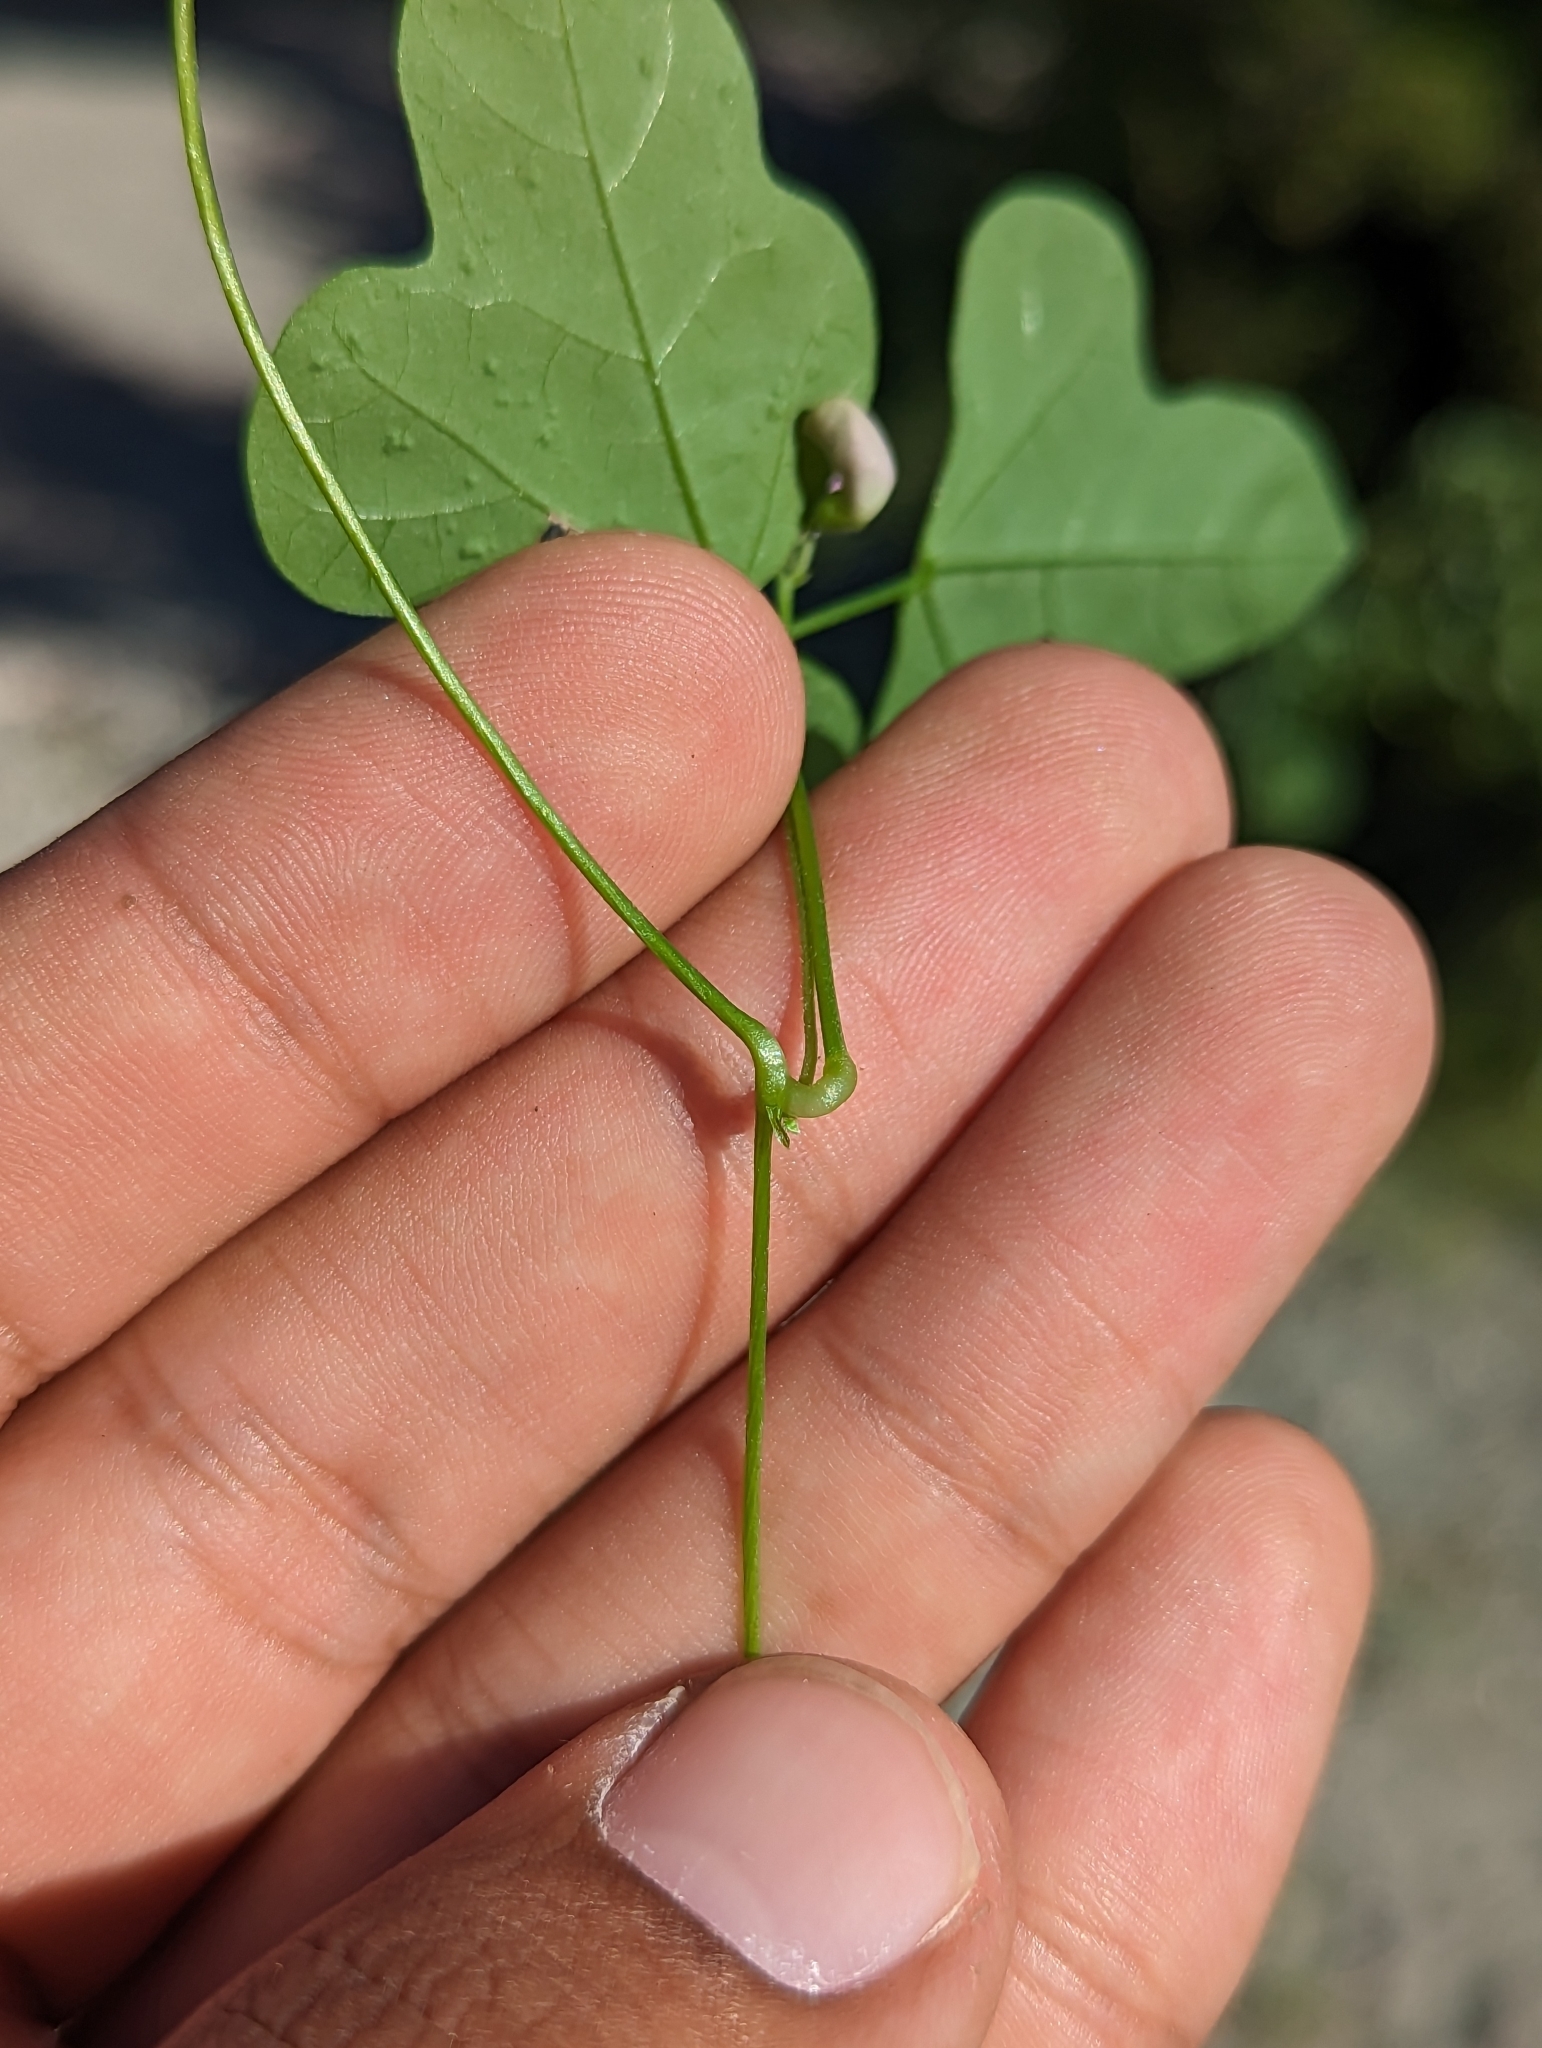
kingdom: Plantae
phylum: Tracheophyta
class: Magnoliopsida
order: Fabales
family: Fabaceae
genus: Phaseolus
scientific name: Phaseolus filiformis
